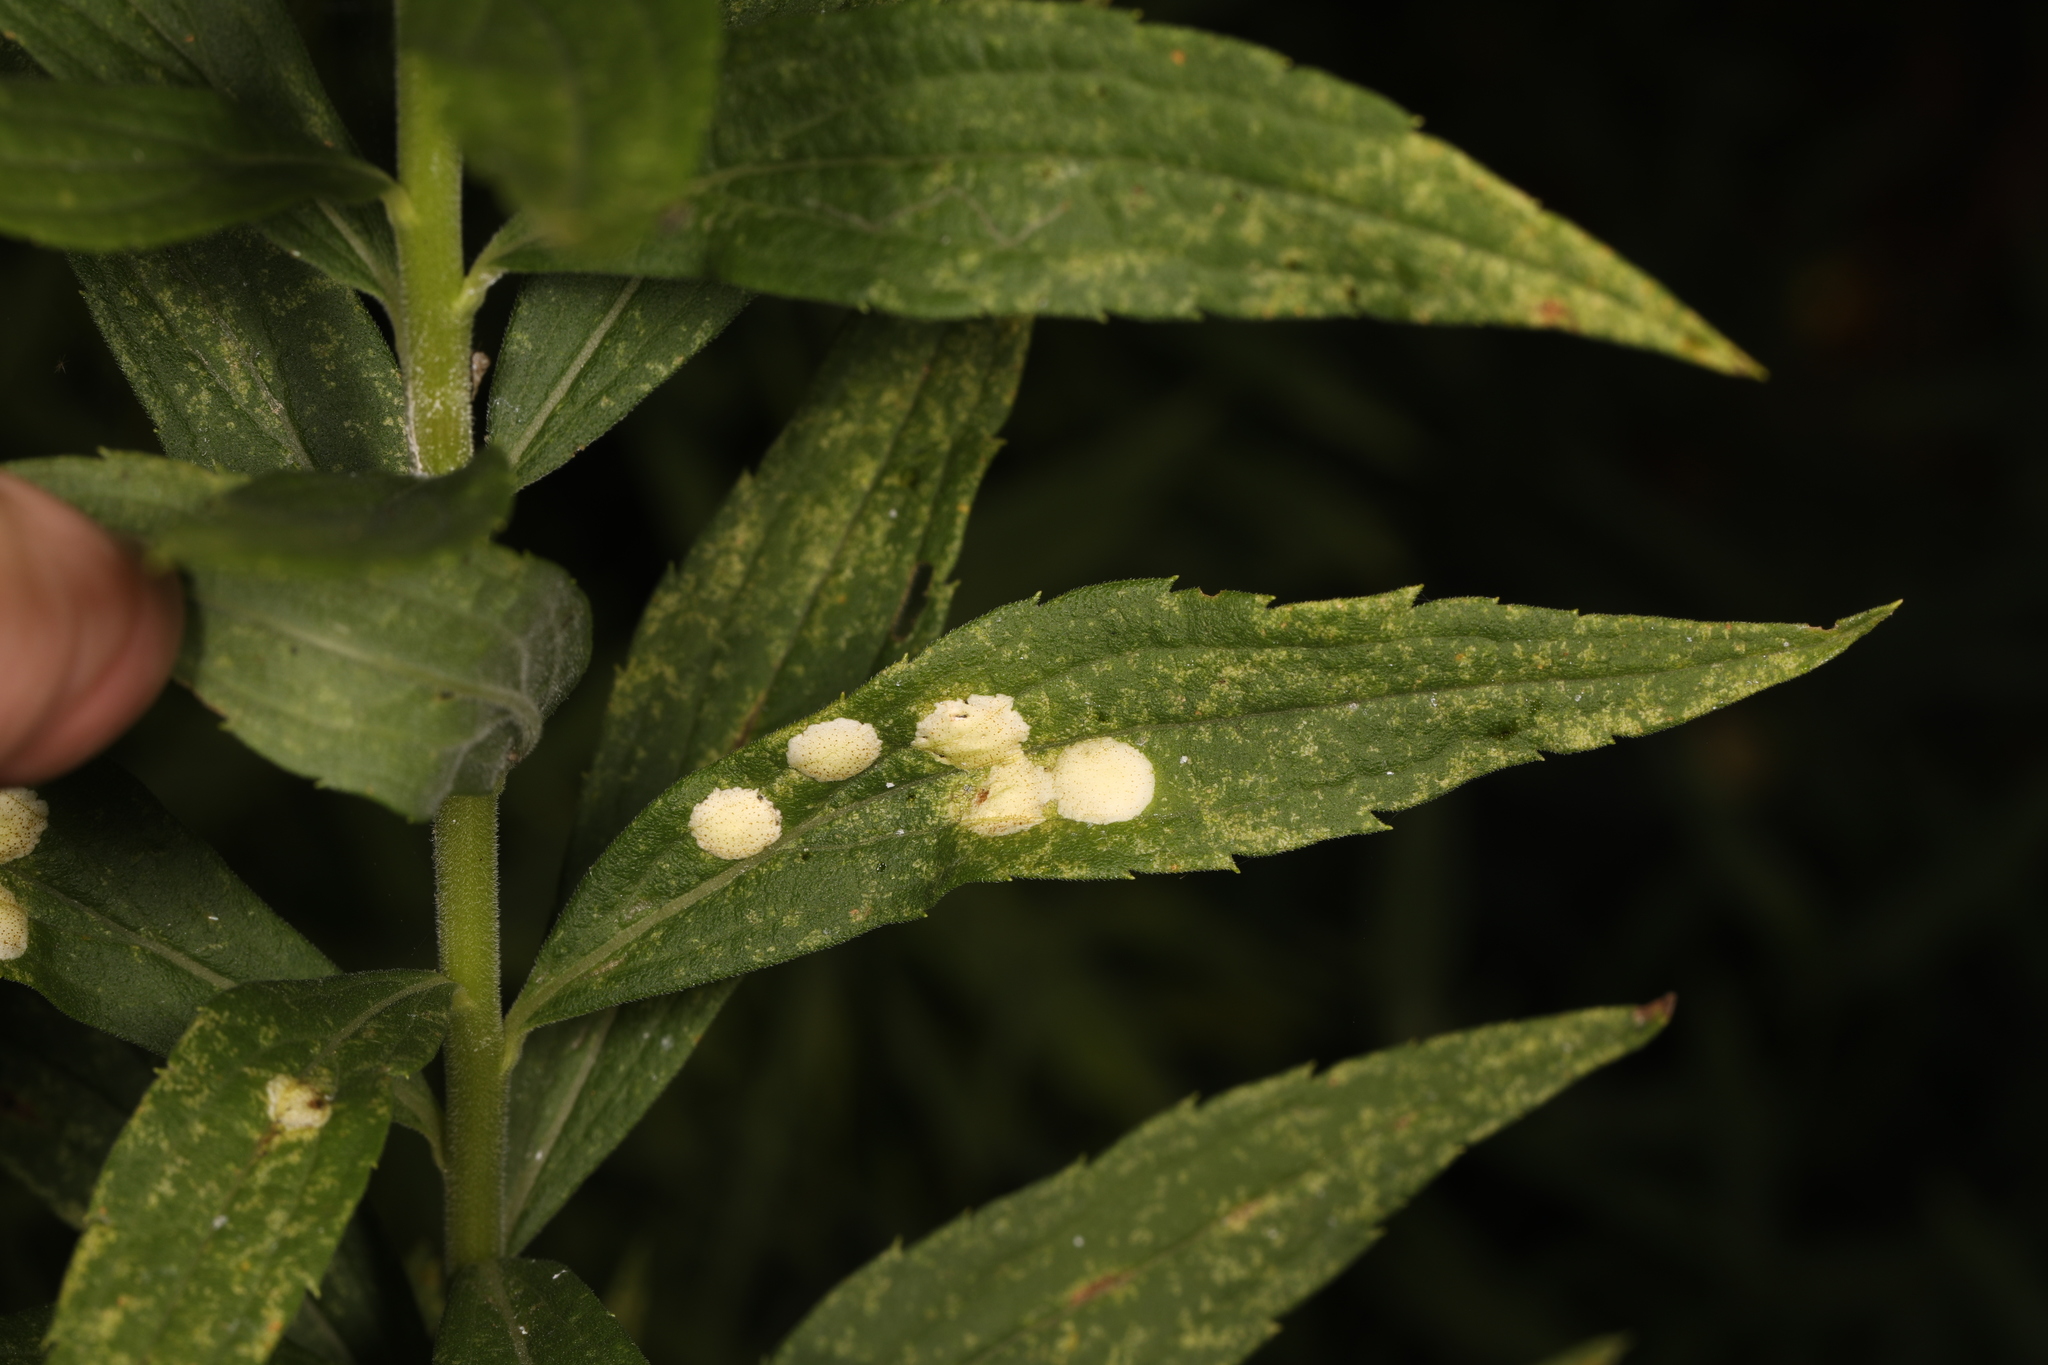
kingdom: Animalia
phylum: Arthropoda
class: Insecta
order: Diptera
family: Cecidomyiidae
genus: Asteromyia
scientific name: Asteromyia carbonifera
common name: Carbonifera goldenrod gall midge
